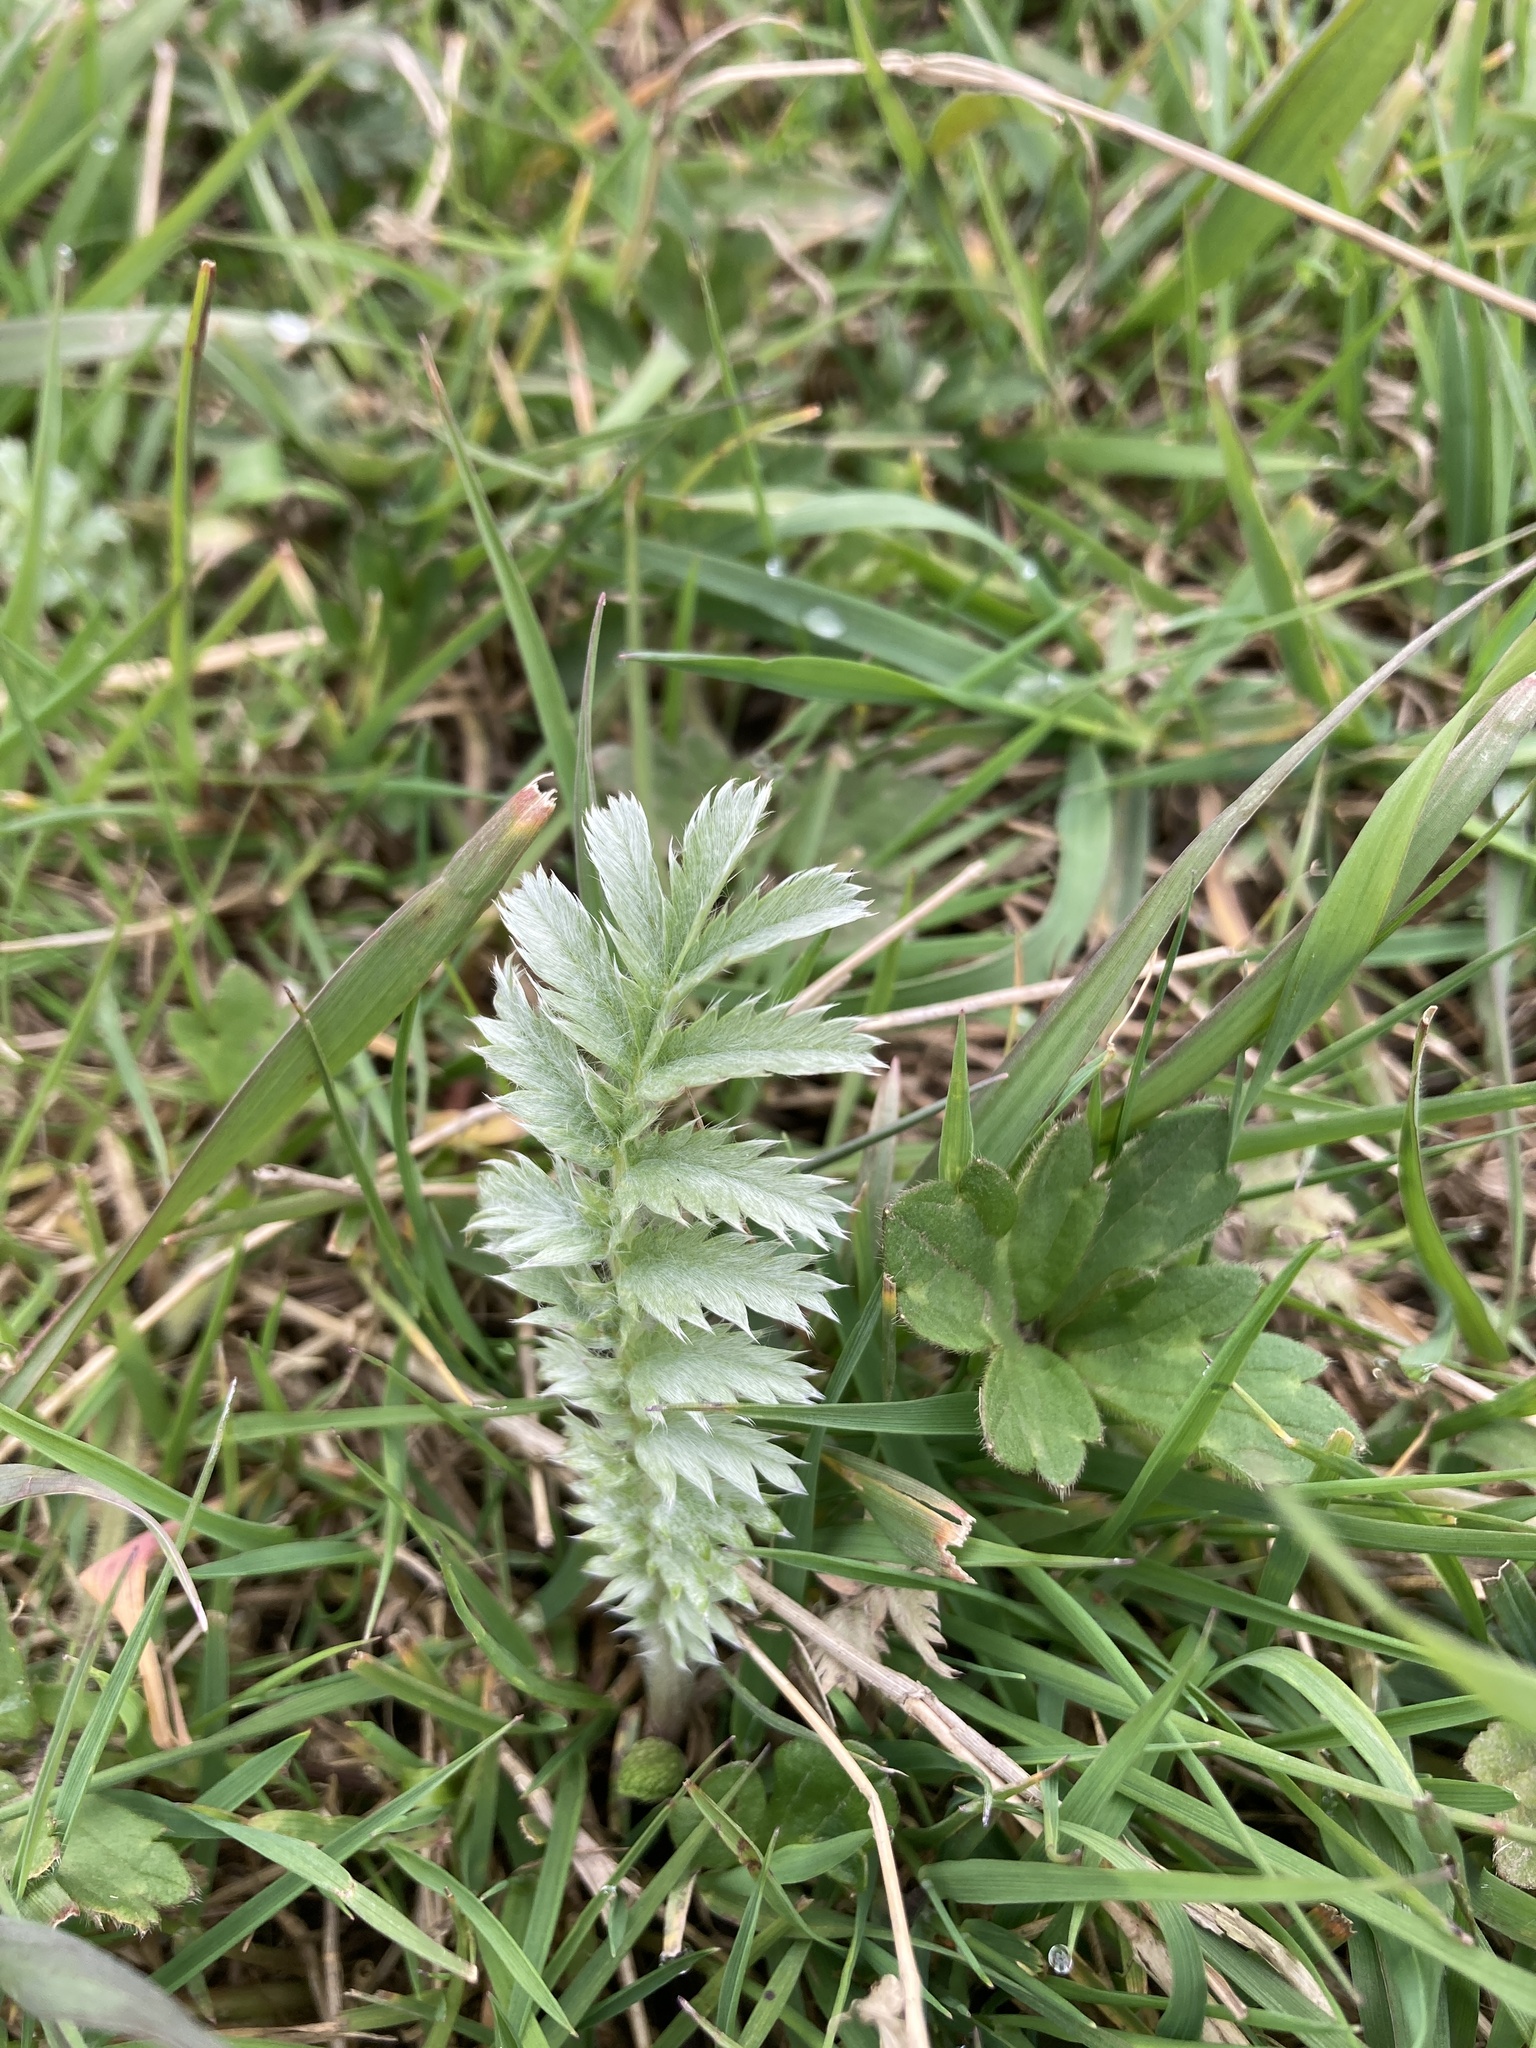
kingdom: Plantae
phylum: Tracheophyta
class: Magnoliopsida
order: Rosales
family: Rosaceae
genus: Argentina
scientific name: Argentina anserina
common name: Common silverweed
